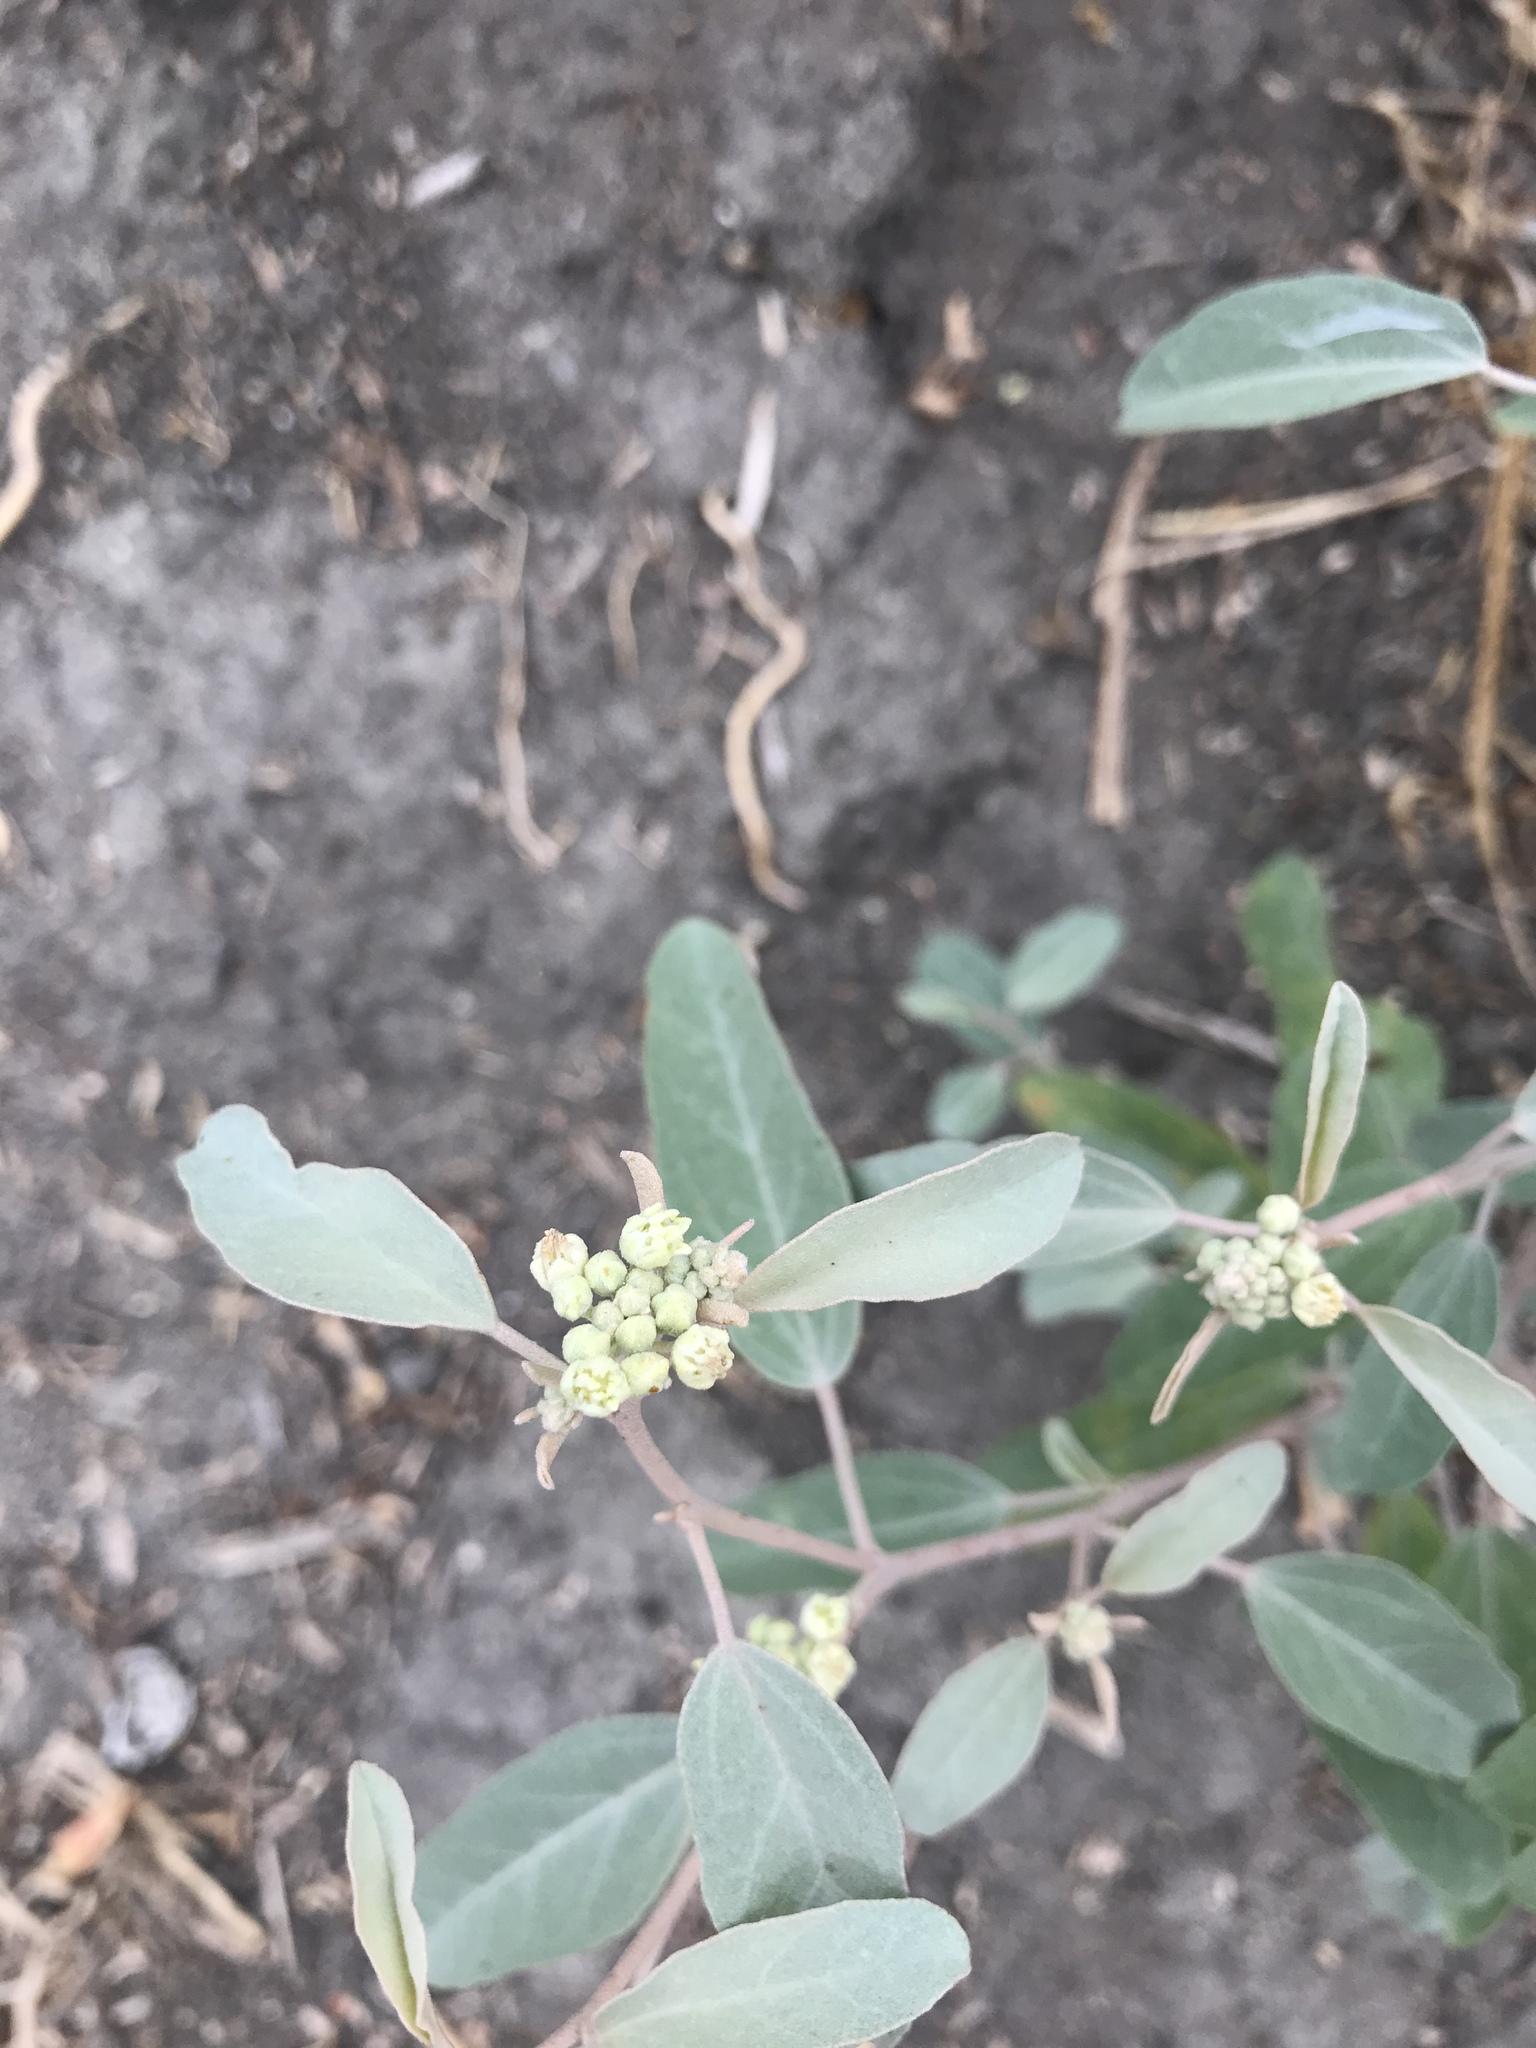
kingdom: Plantae
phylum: Tracheophyta
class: Magnoliopsida
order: Malpighiales
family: Euphorbiaceae
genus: Croton
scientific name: Croton californicus
